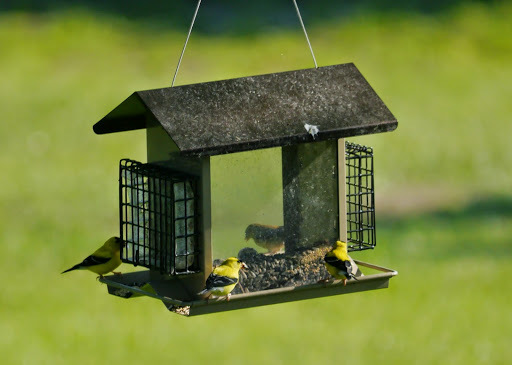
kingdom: Animalia
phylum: Chordata
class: Aves
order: Passeriformes
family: Fringillidae
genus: Spinus
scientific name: Spinus tristis
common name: American goldfinch
